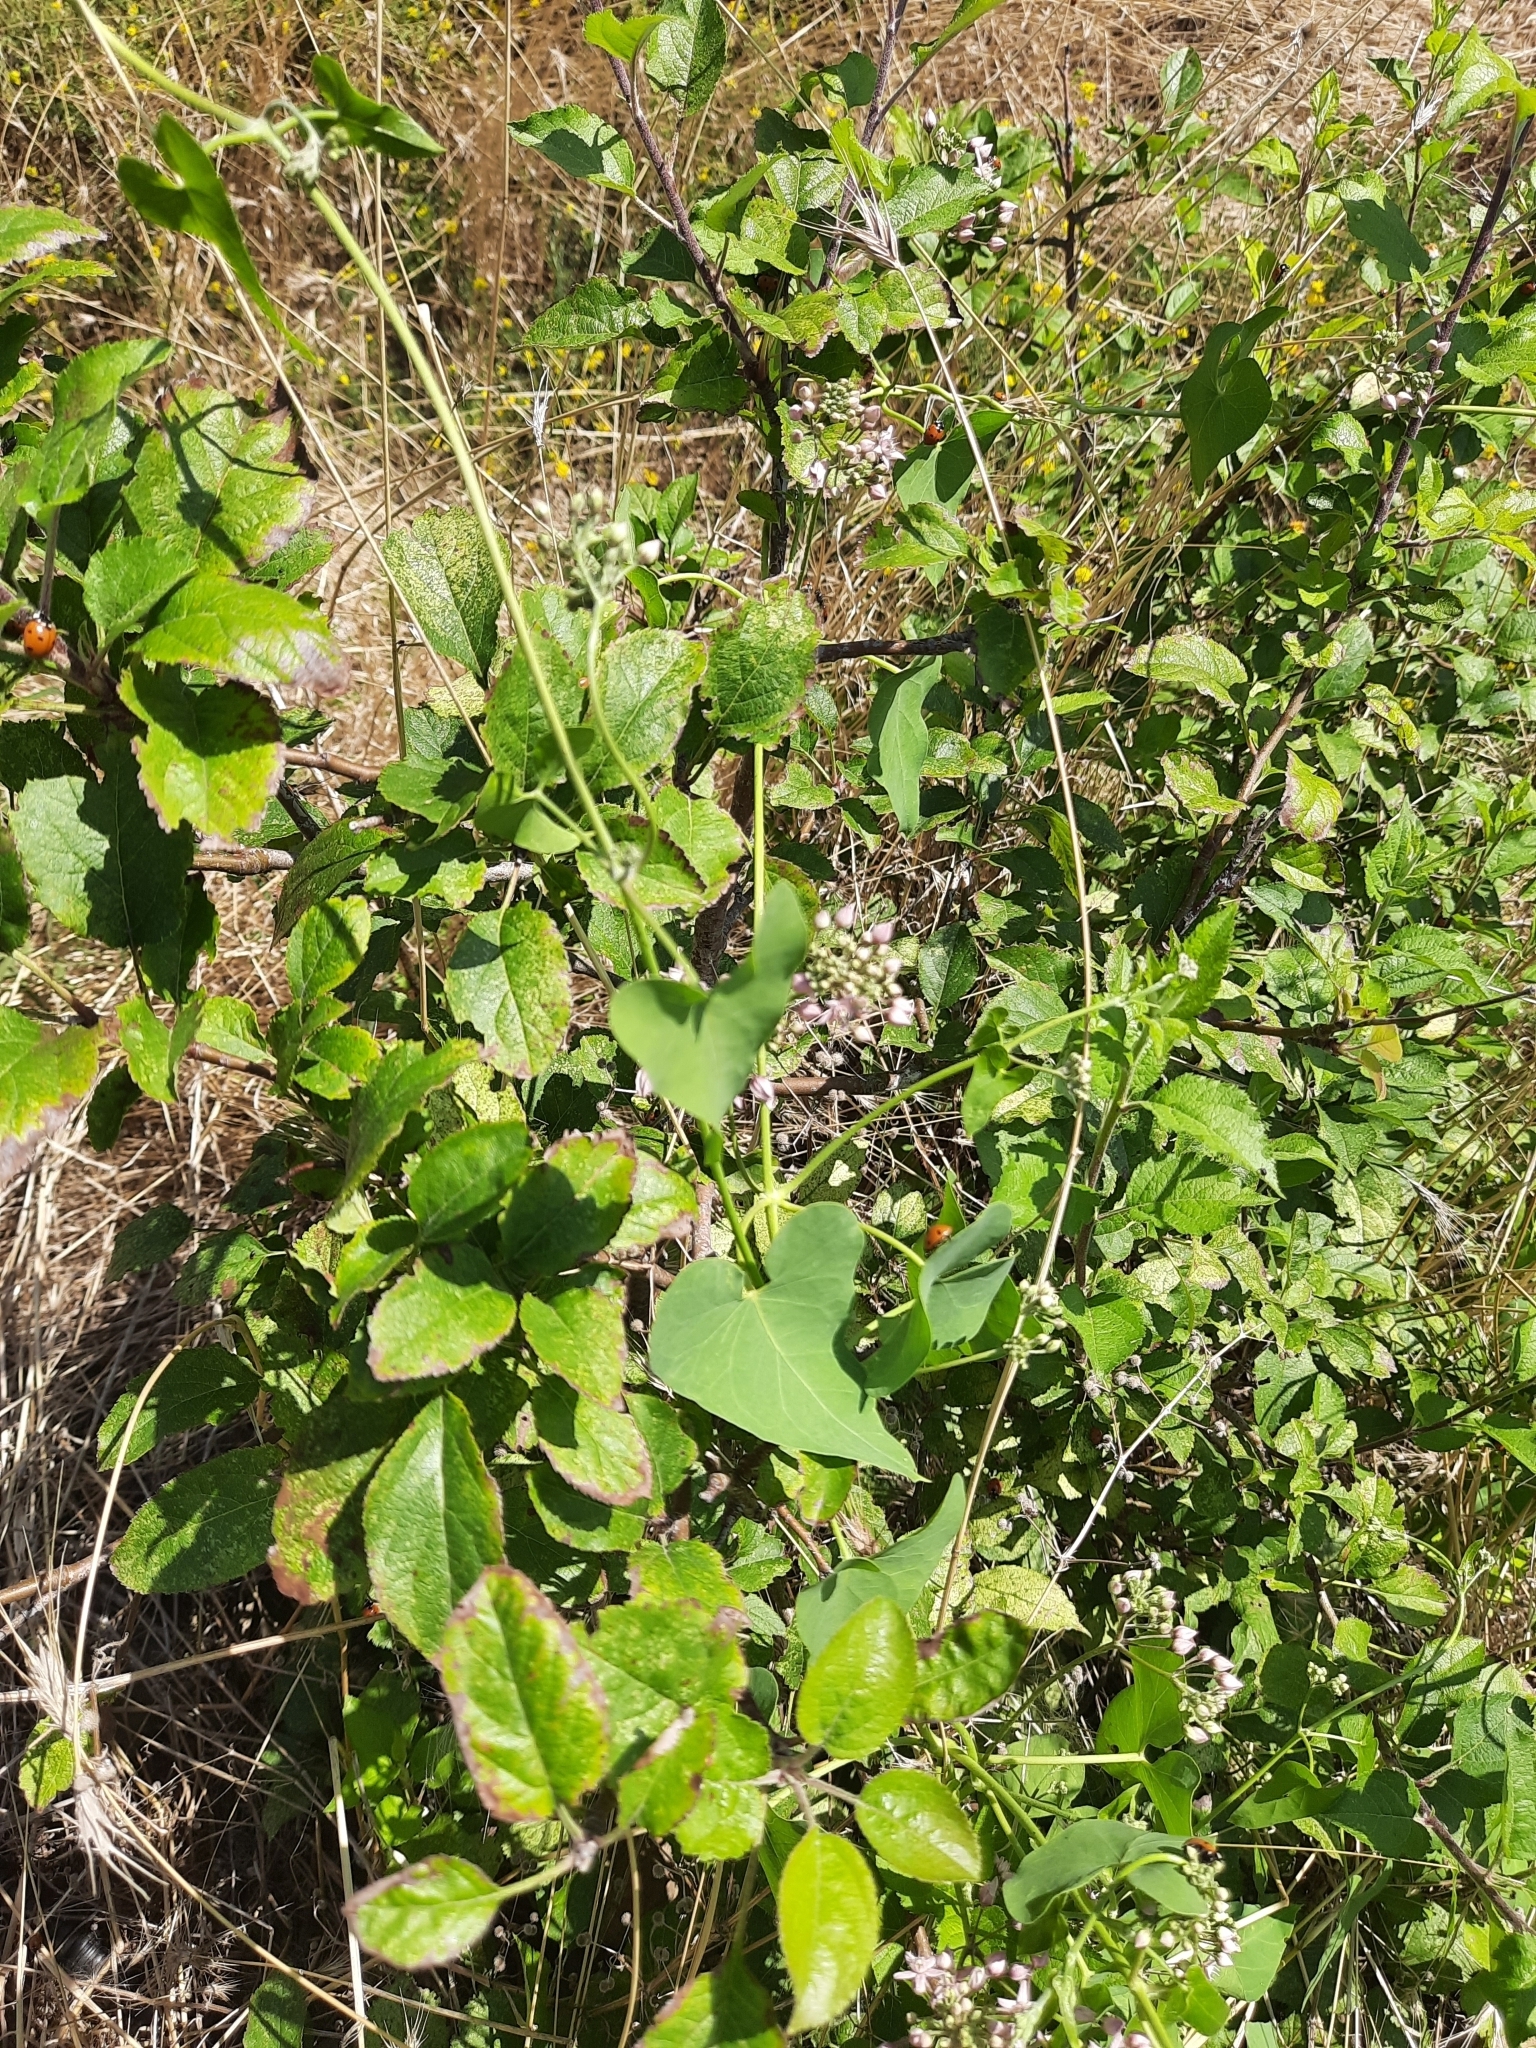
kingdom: Plantae
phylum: Tracheophyta
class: Magnoliopsida
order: Gentianales
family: Apocynaceae
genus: Cynanchum
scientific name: Cynanchum acutum
